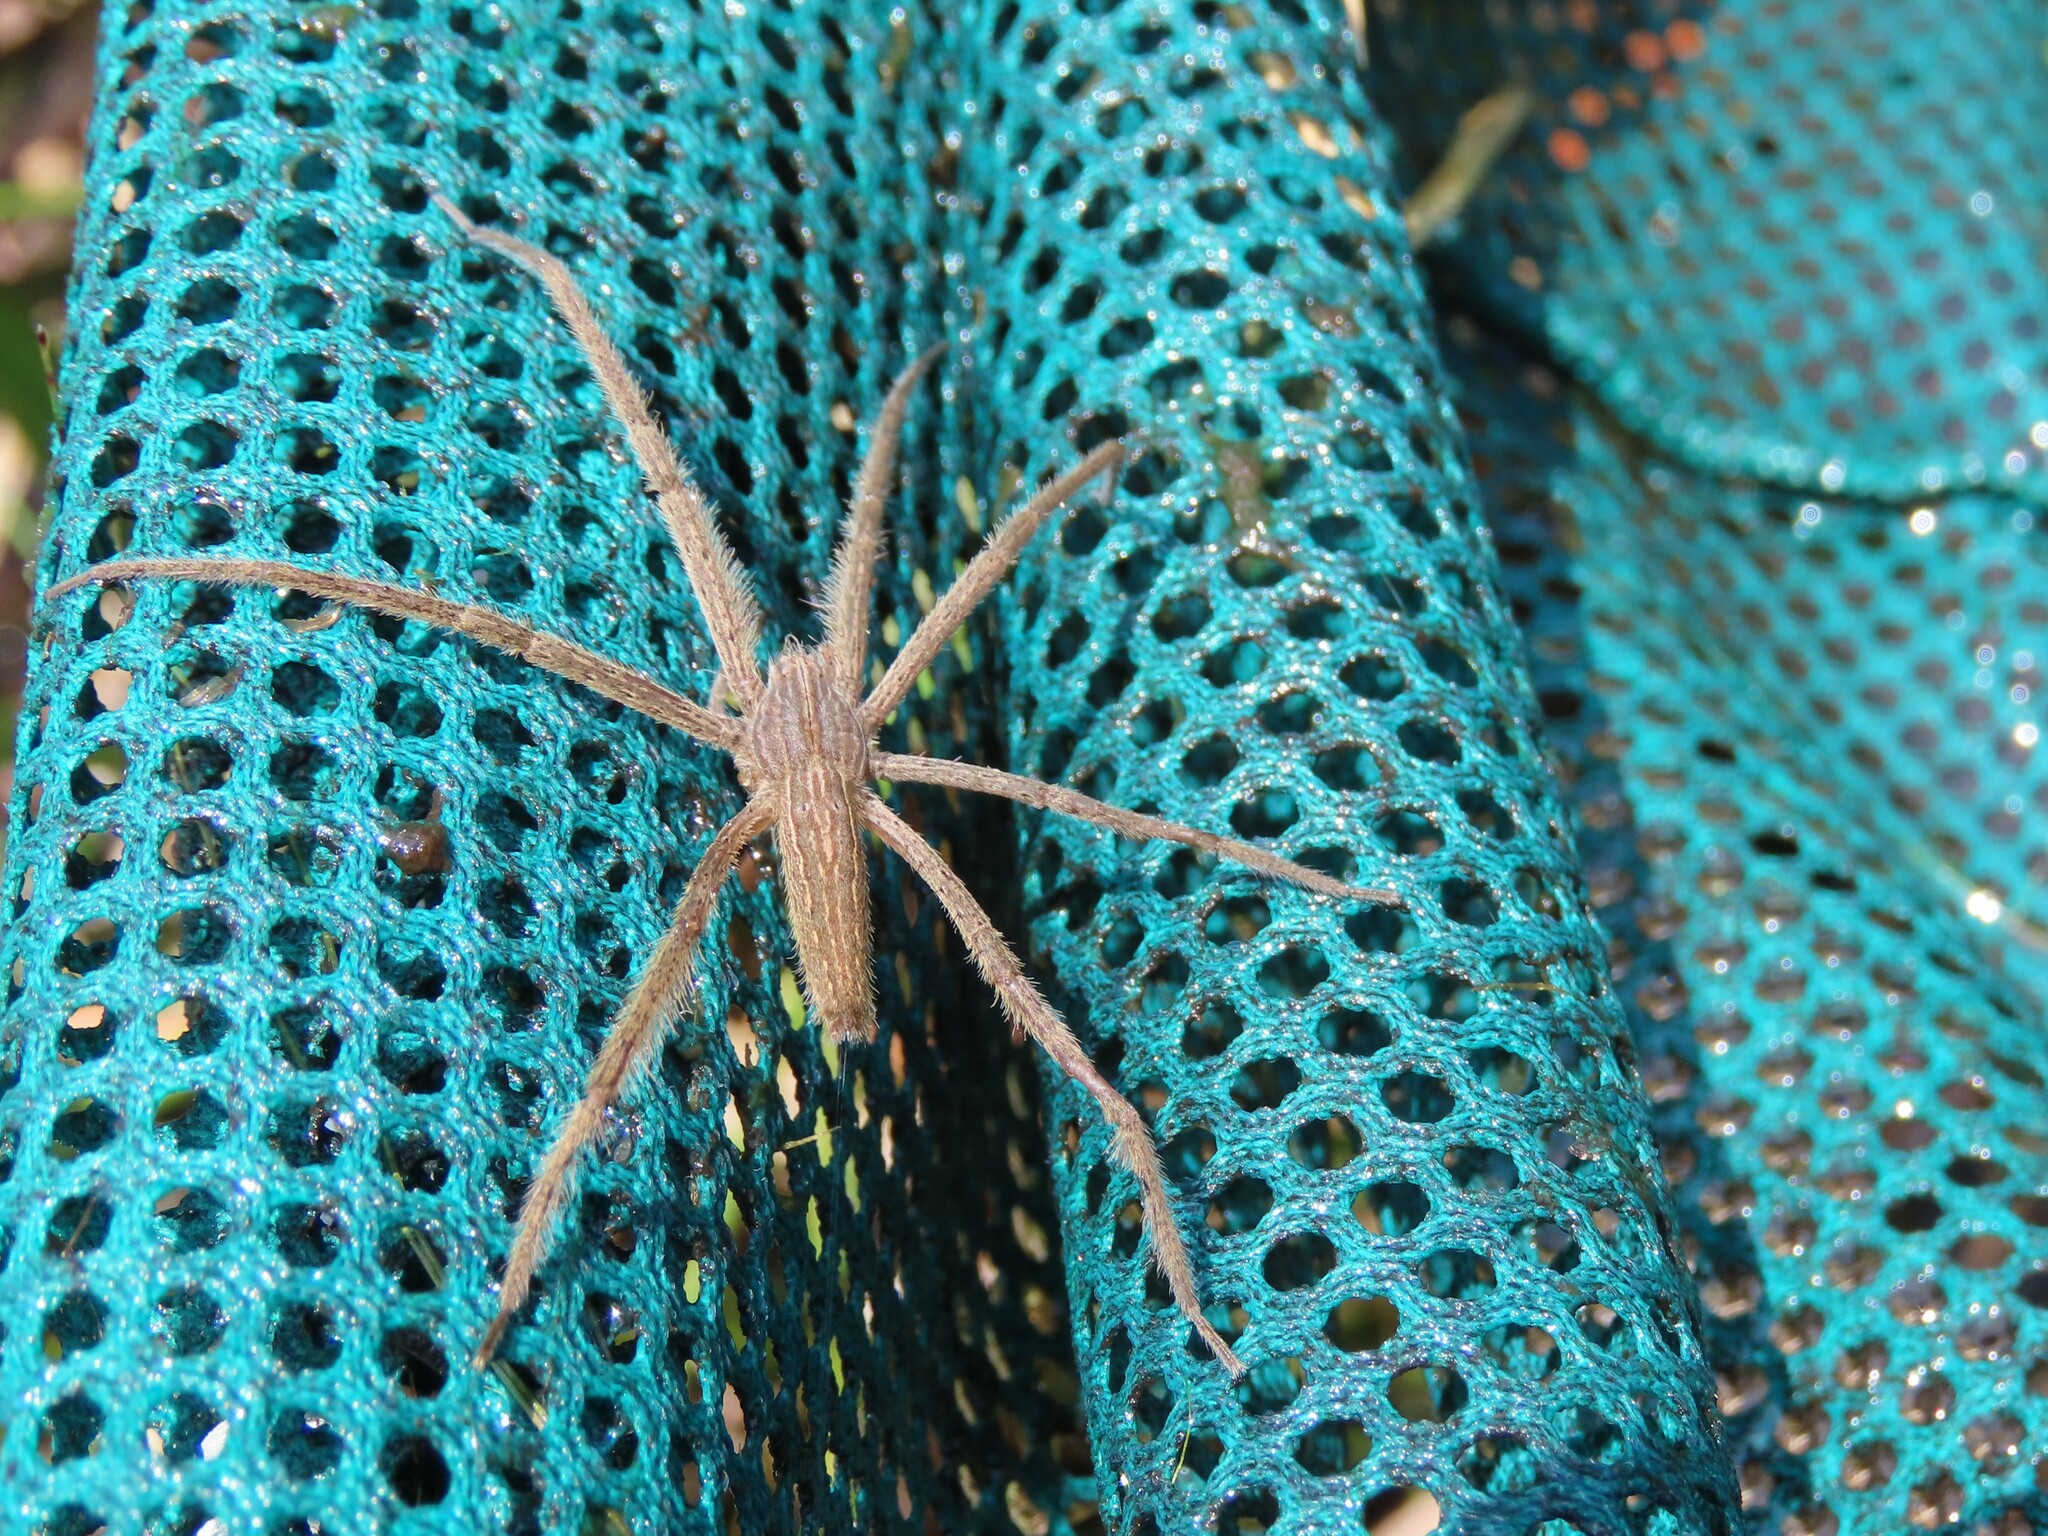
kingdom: Animalia
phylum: Arthropoda
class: Arachnida
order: Araneae
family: Pisauridae
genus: Pisaurina
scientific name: Pisaurina undulata
